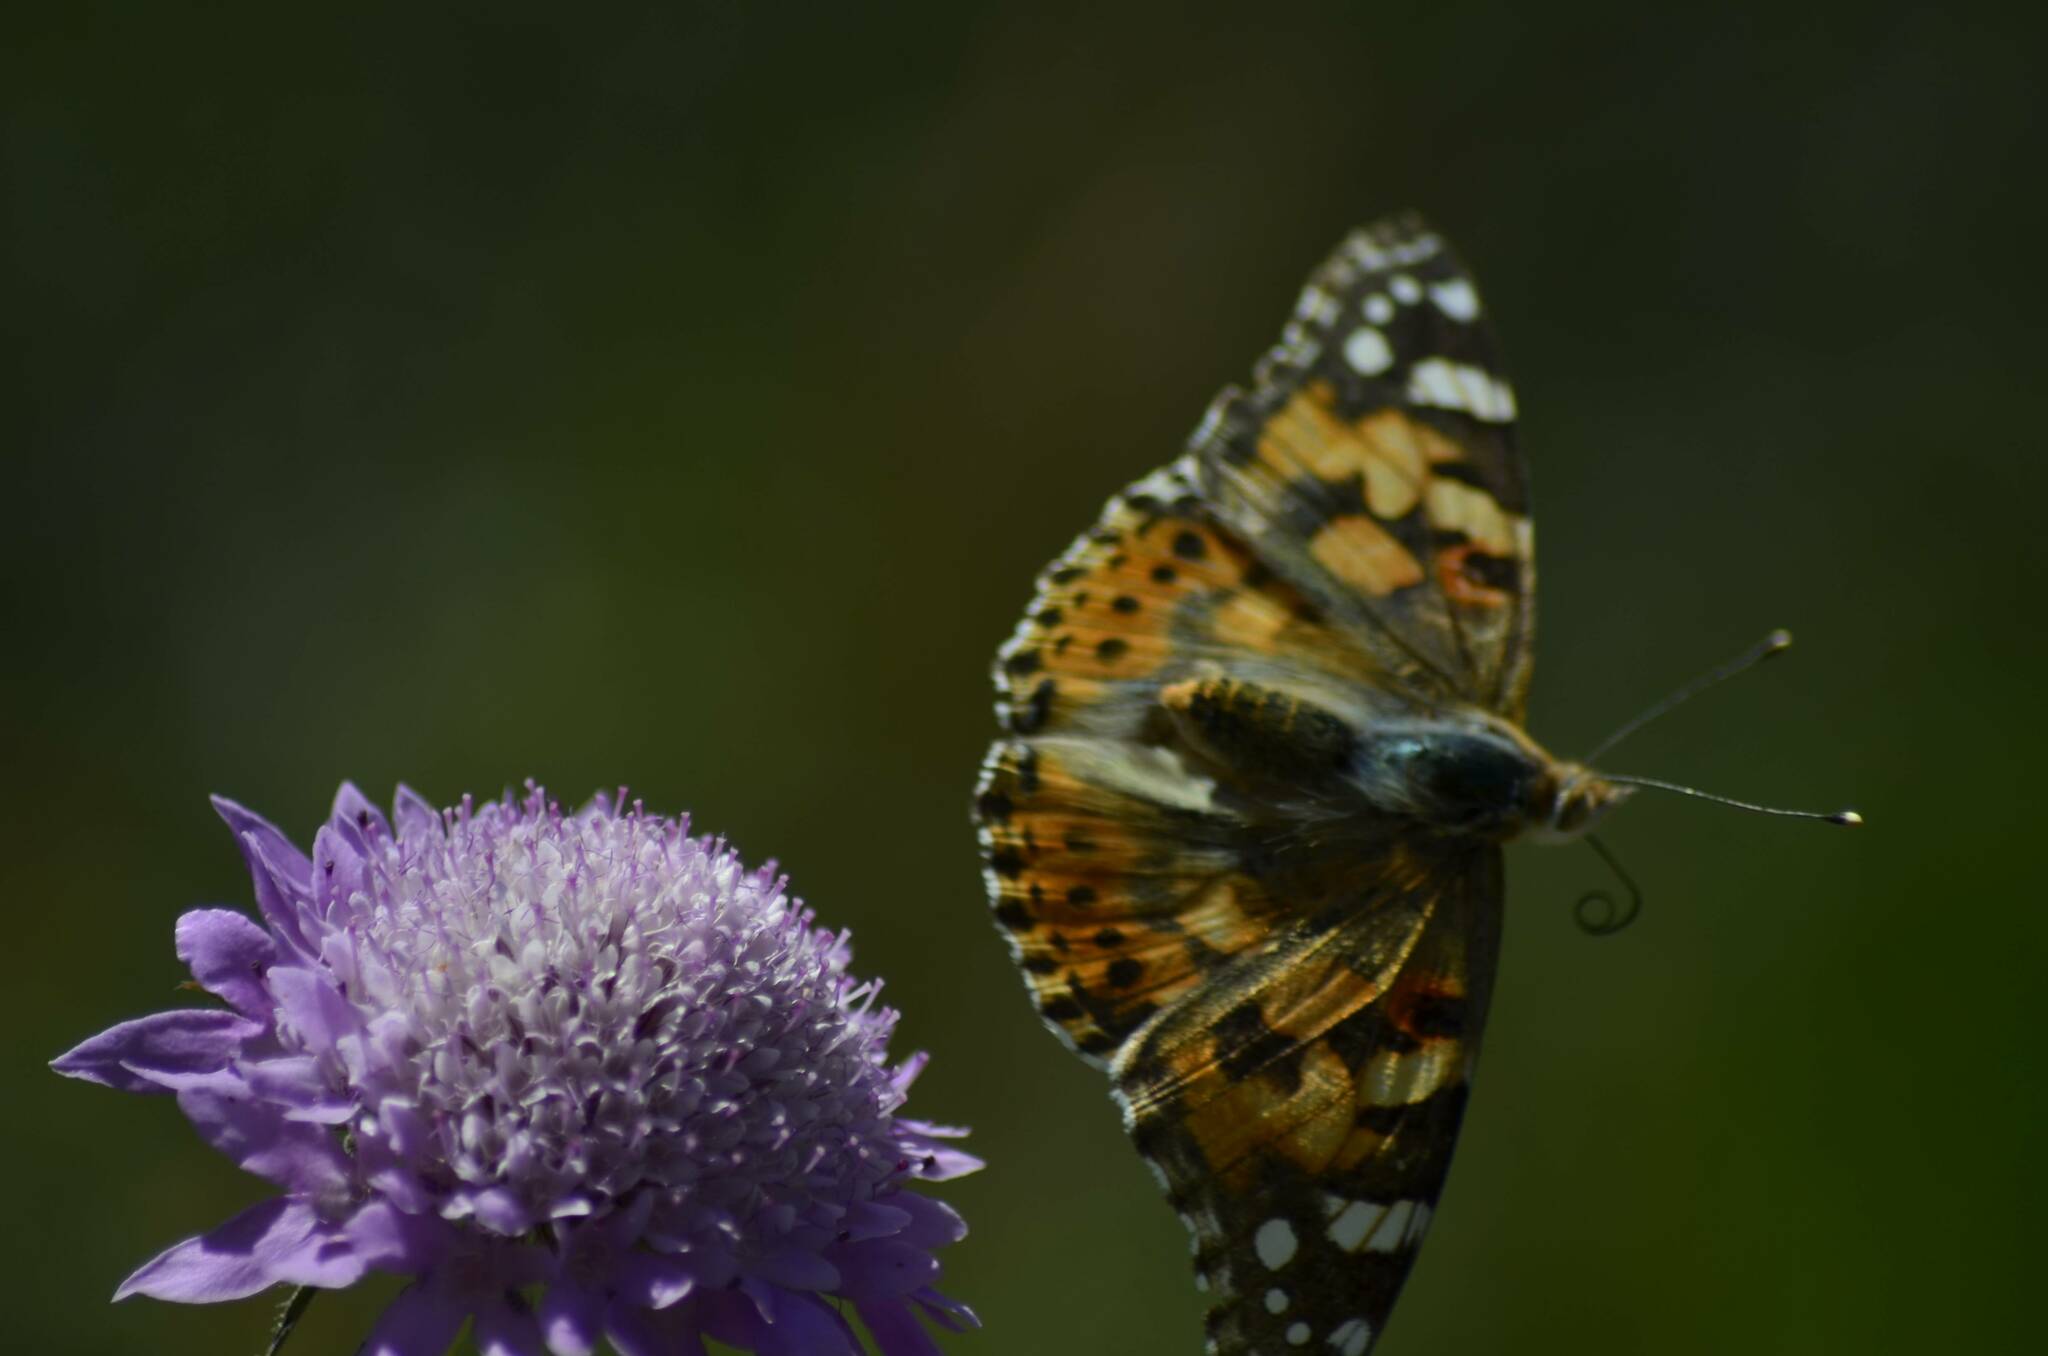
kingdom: Animalia
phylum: Arthropoda
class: Insecta
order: Lepidoptera
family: Nymphalidae
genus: Vanessa
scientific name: Vanessa cardui
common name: Painted lady
